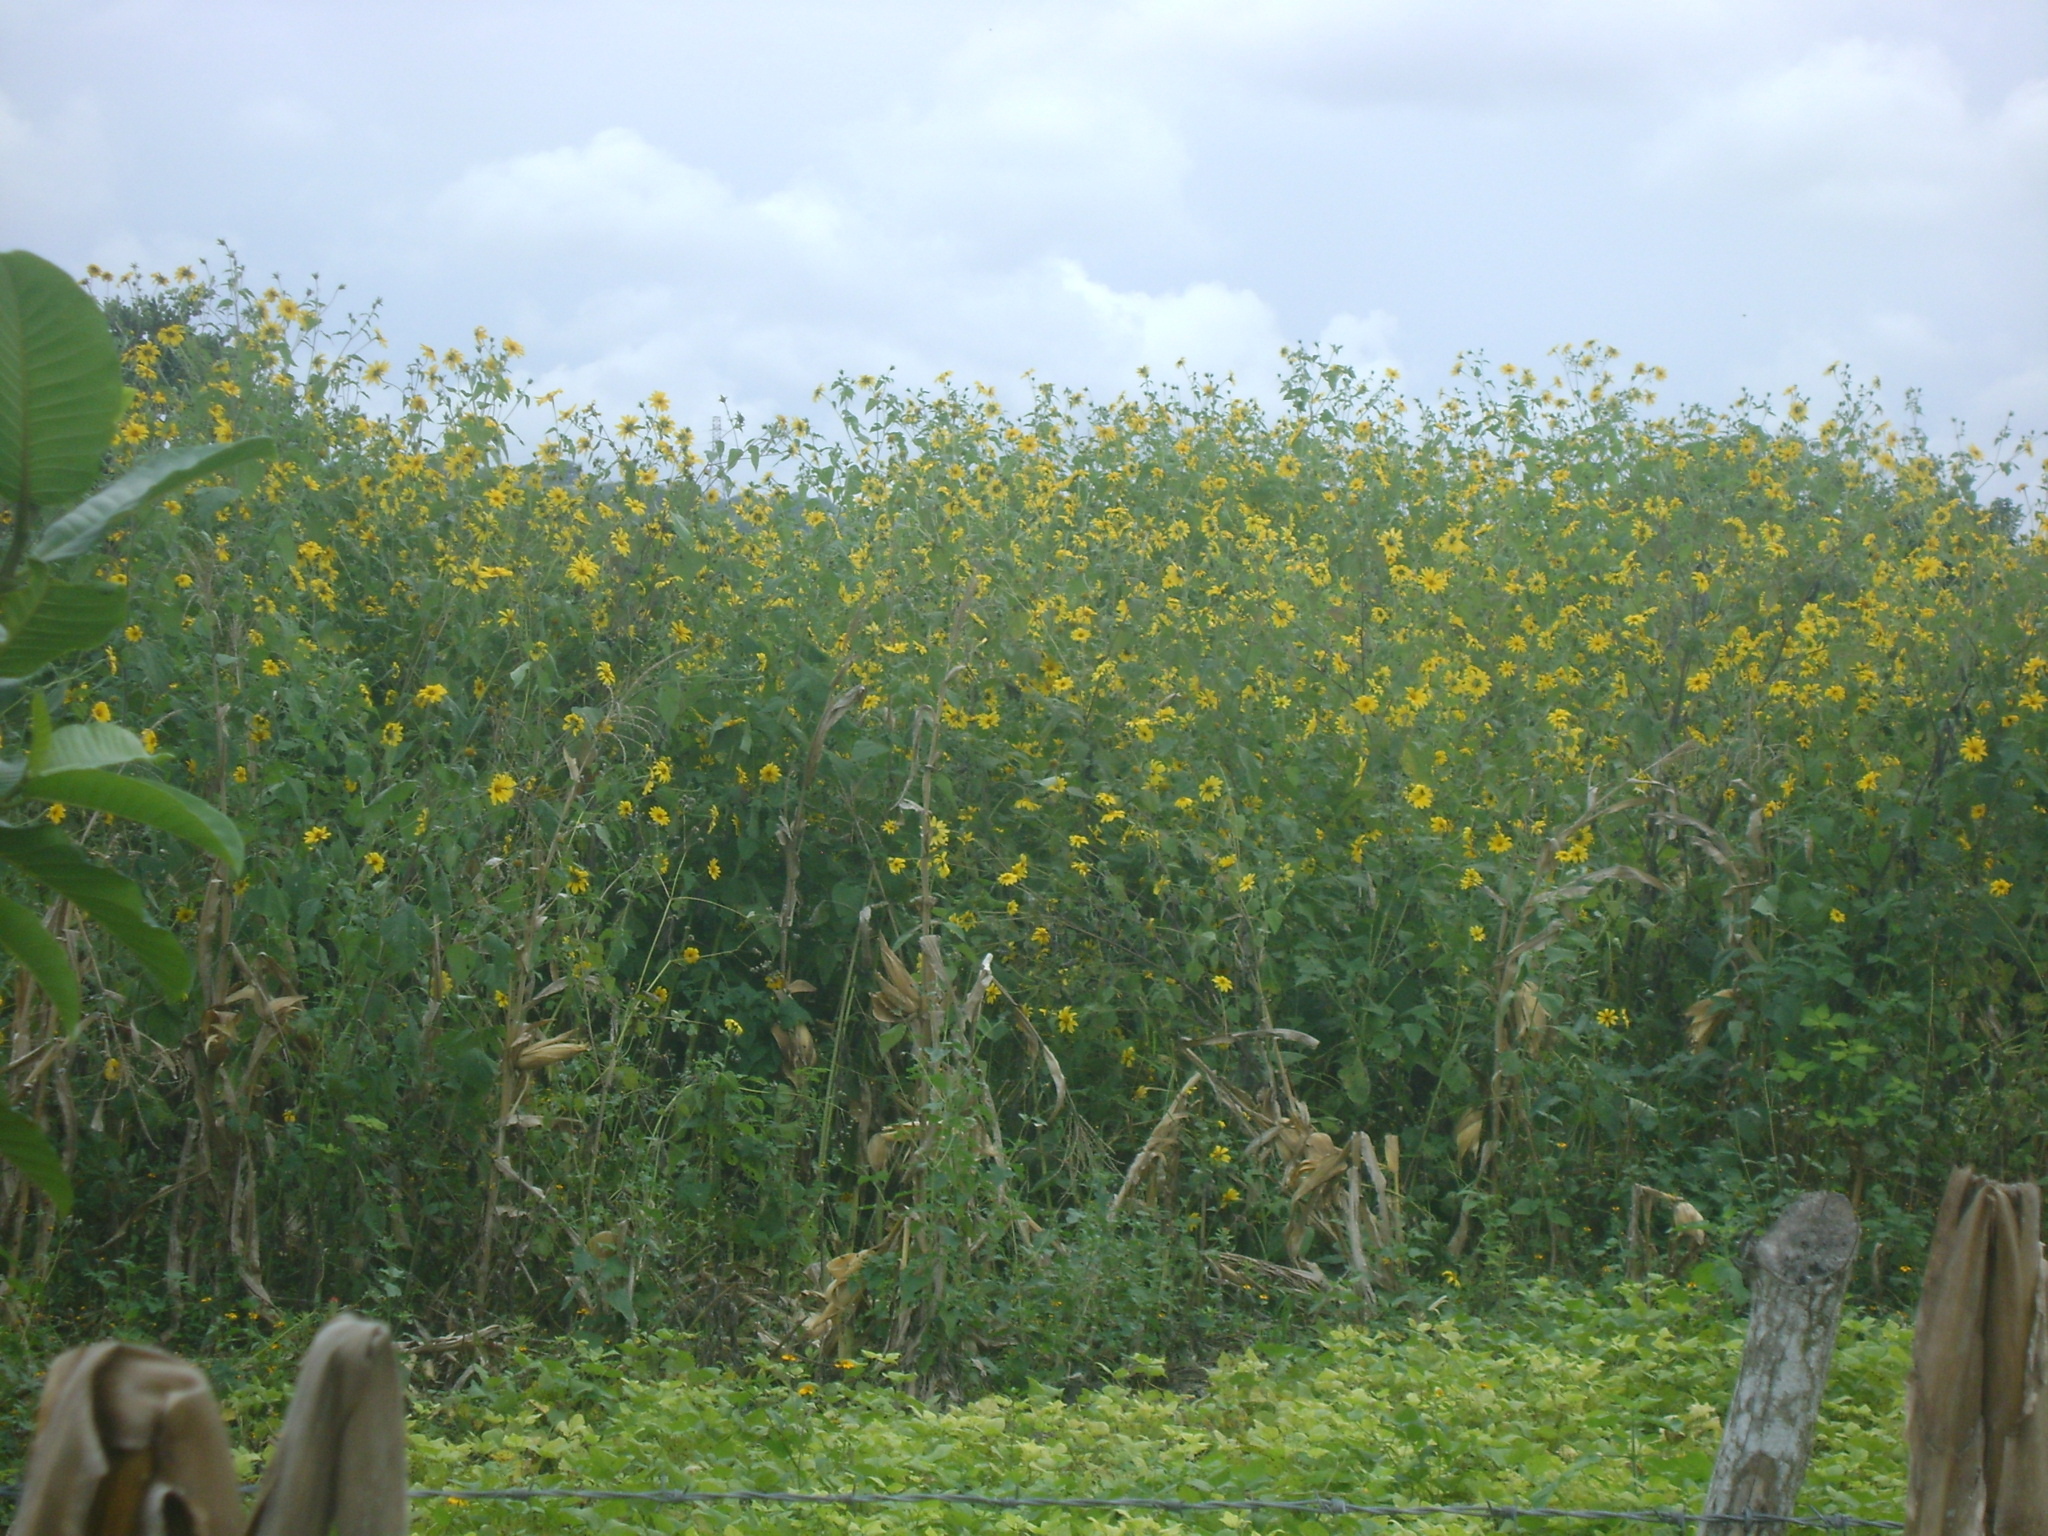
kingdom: Plantae
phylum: Tracheophyta
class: Magnoliopsida
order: Asterales
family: Asteraceae
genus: Tithonia
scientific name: Tithonia tubaeformis
